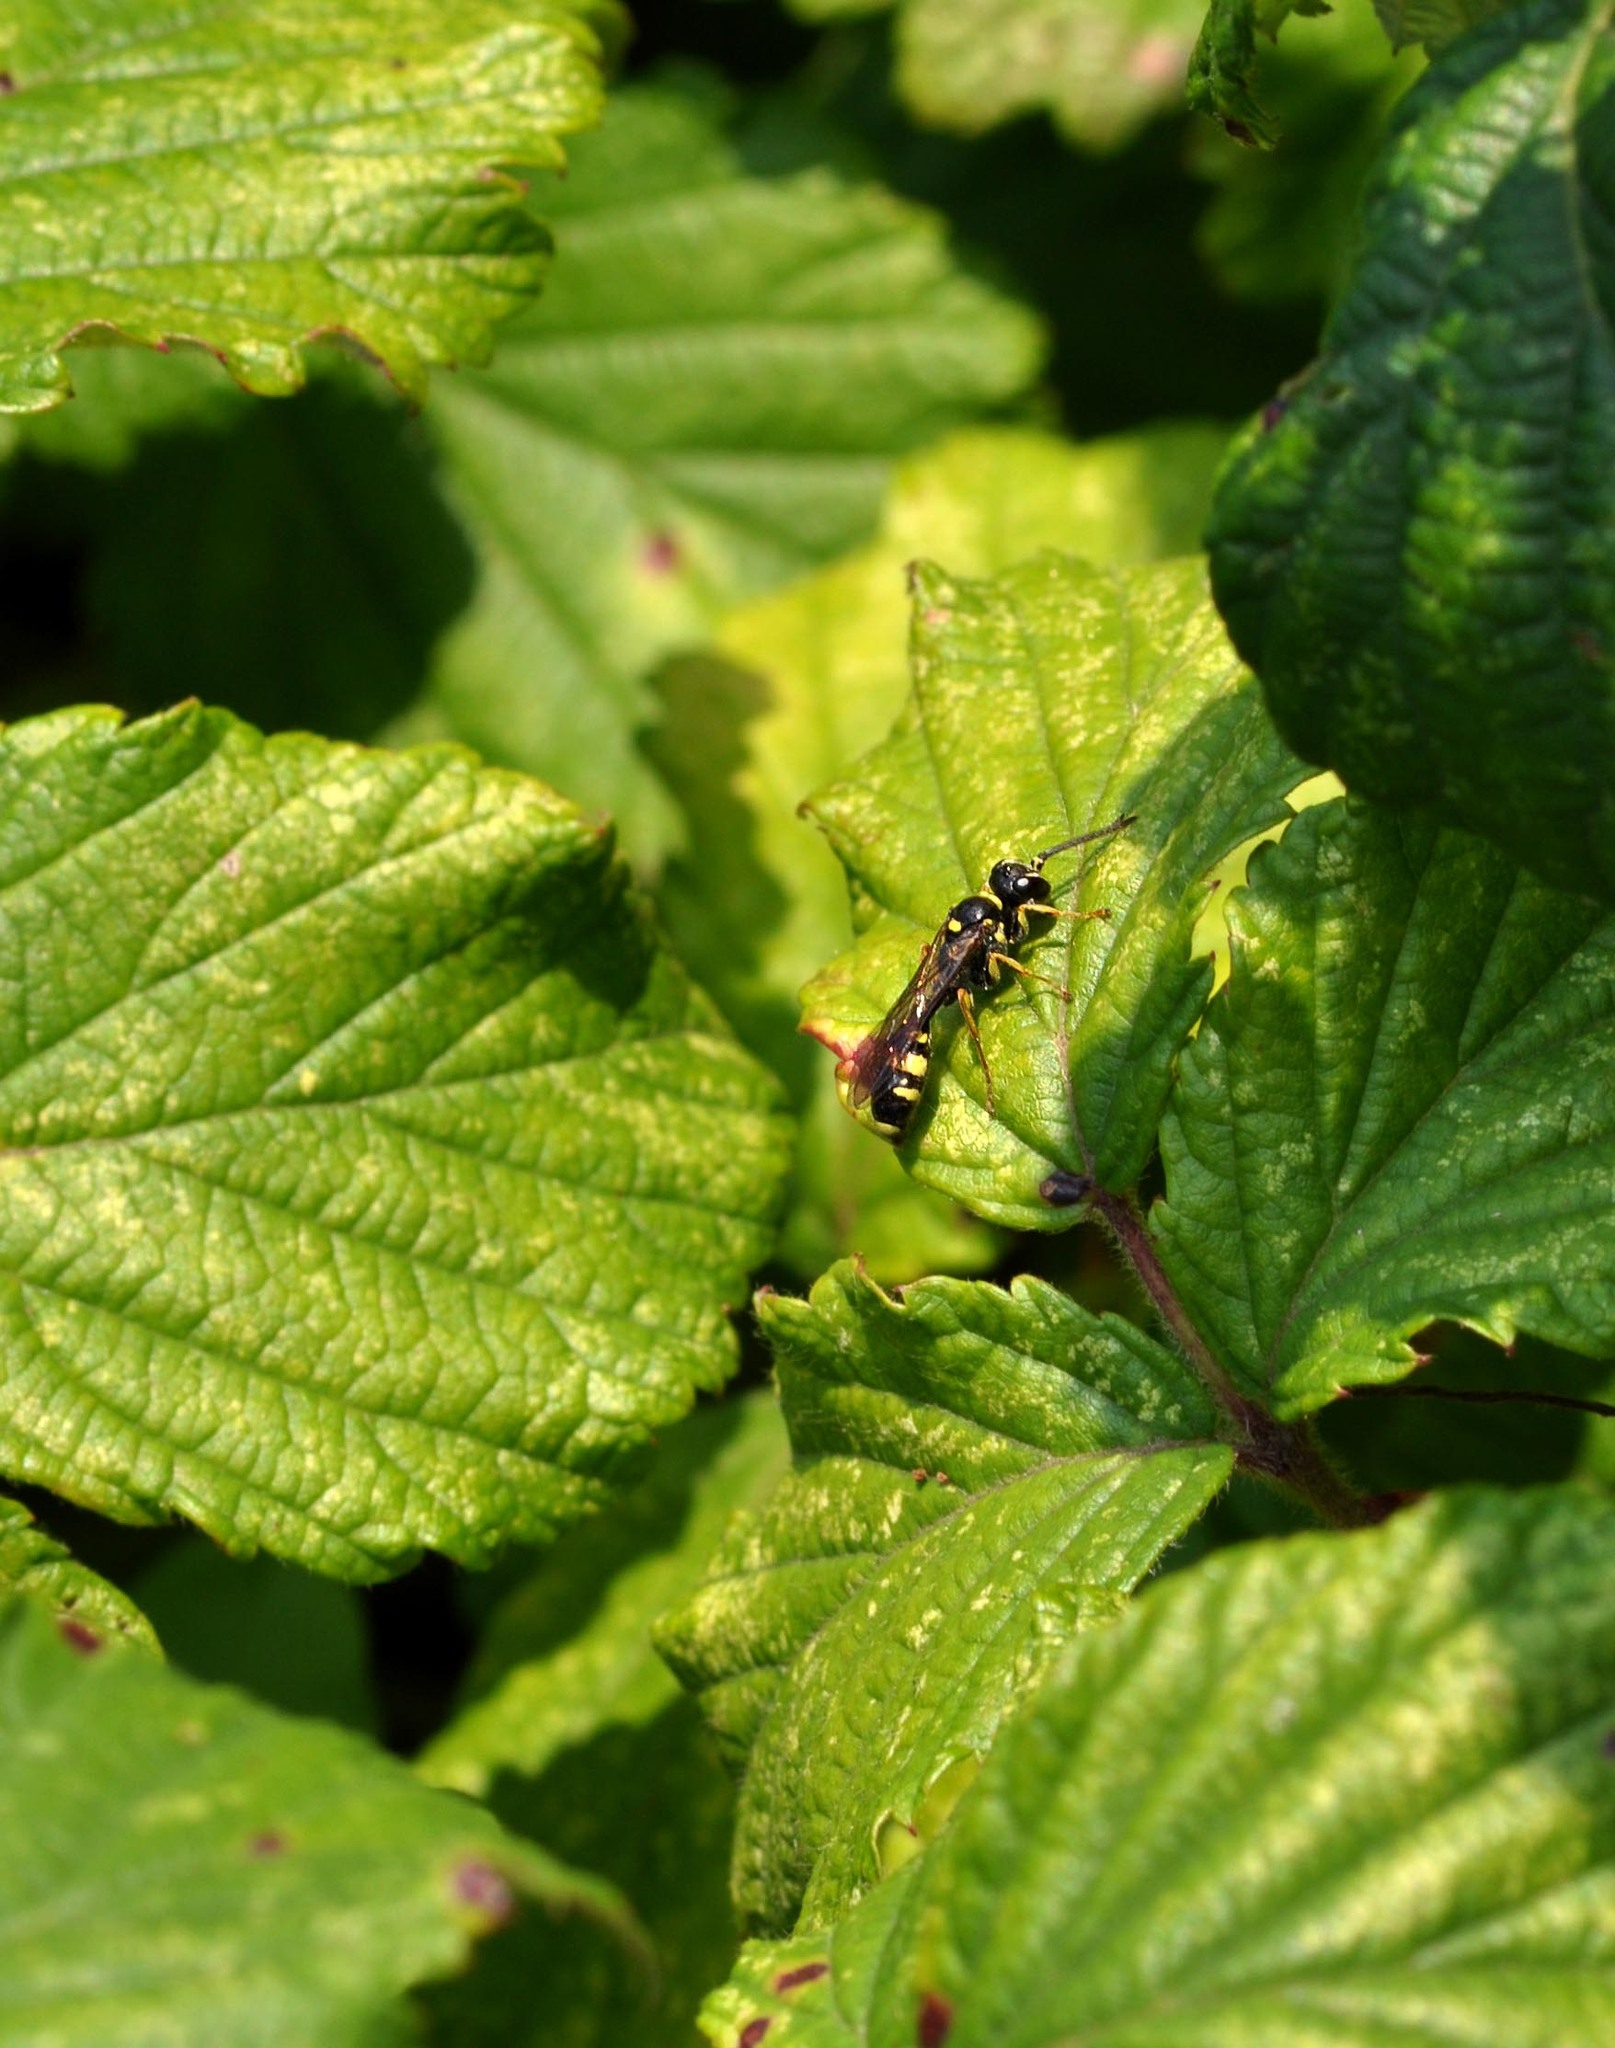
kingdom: Animalia
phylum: Arthropoda
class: Insecta
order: Hymenoptera
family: Crabronidae
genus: Mellinus
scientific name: Mellinus arvensis
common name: Field digger wasp
